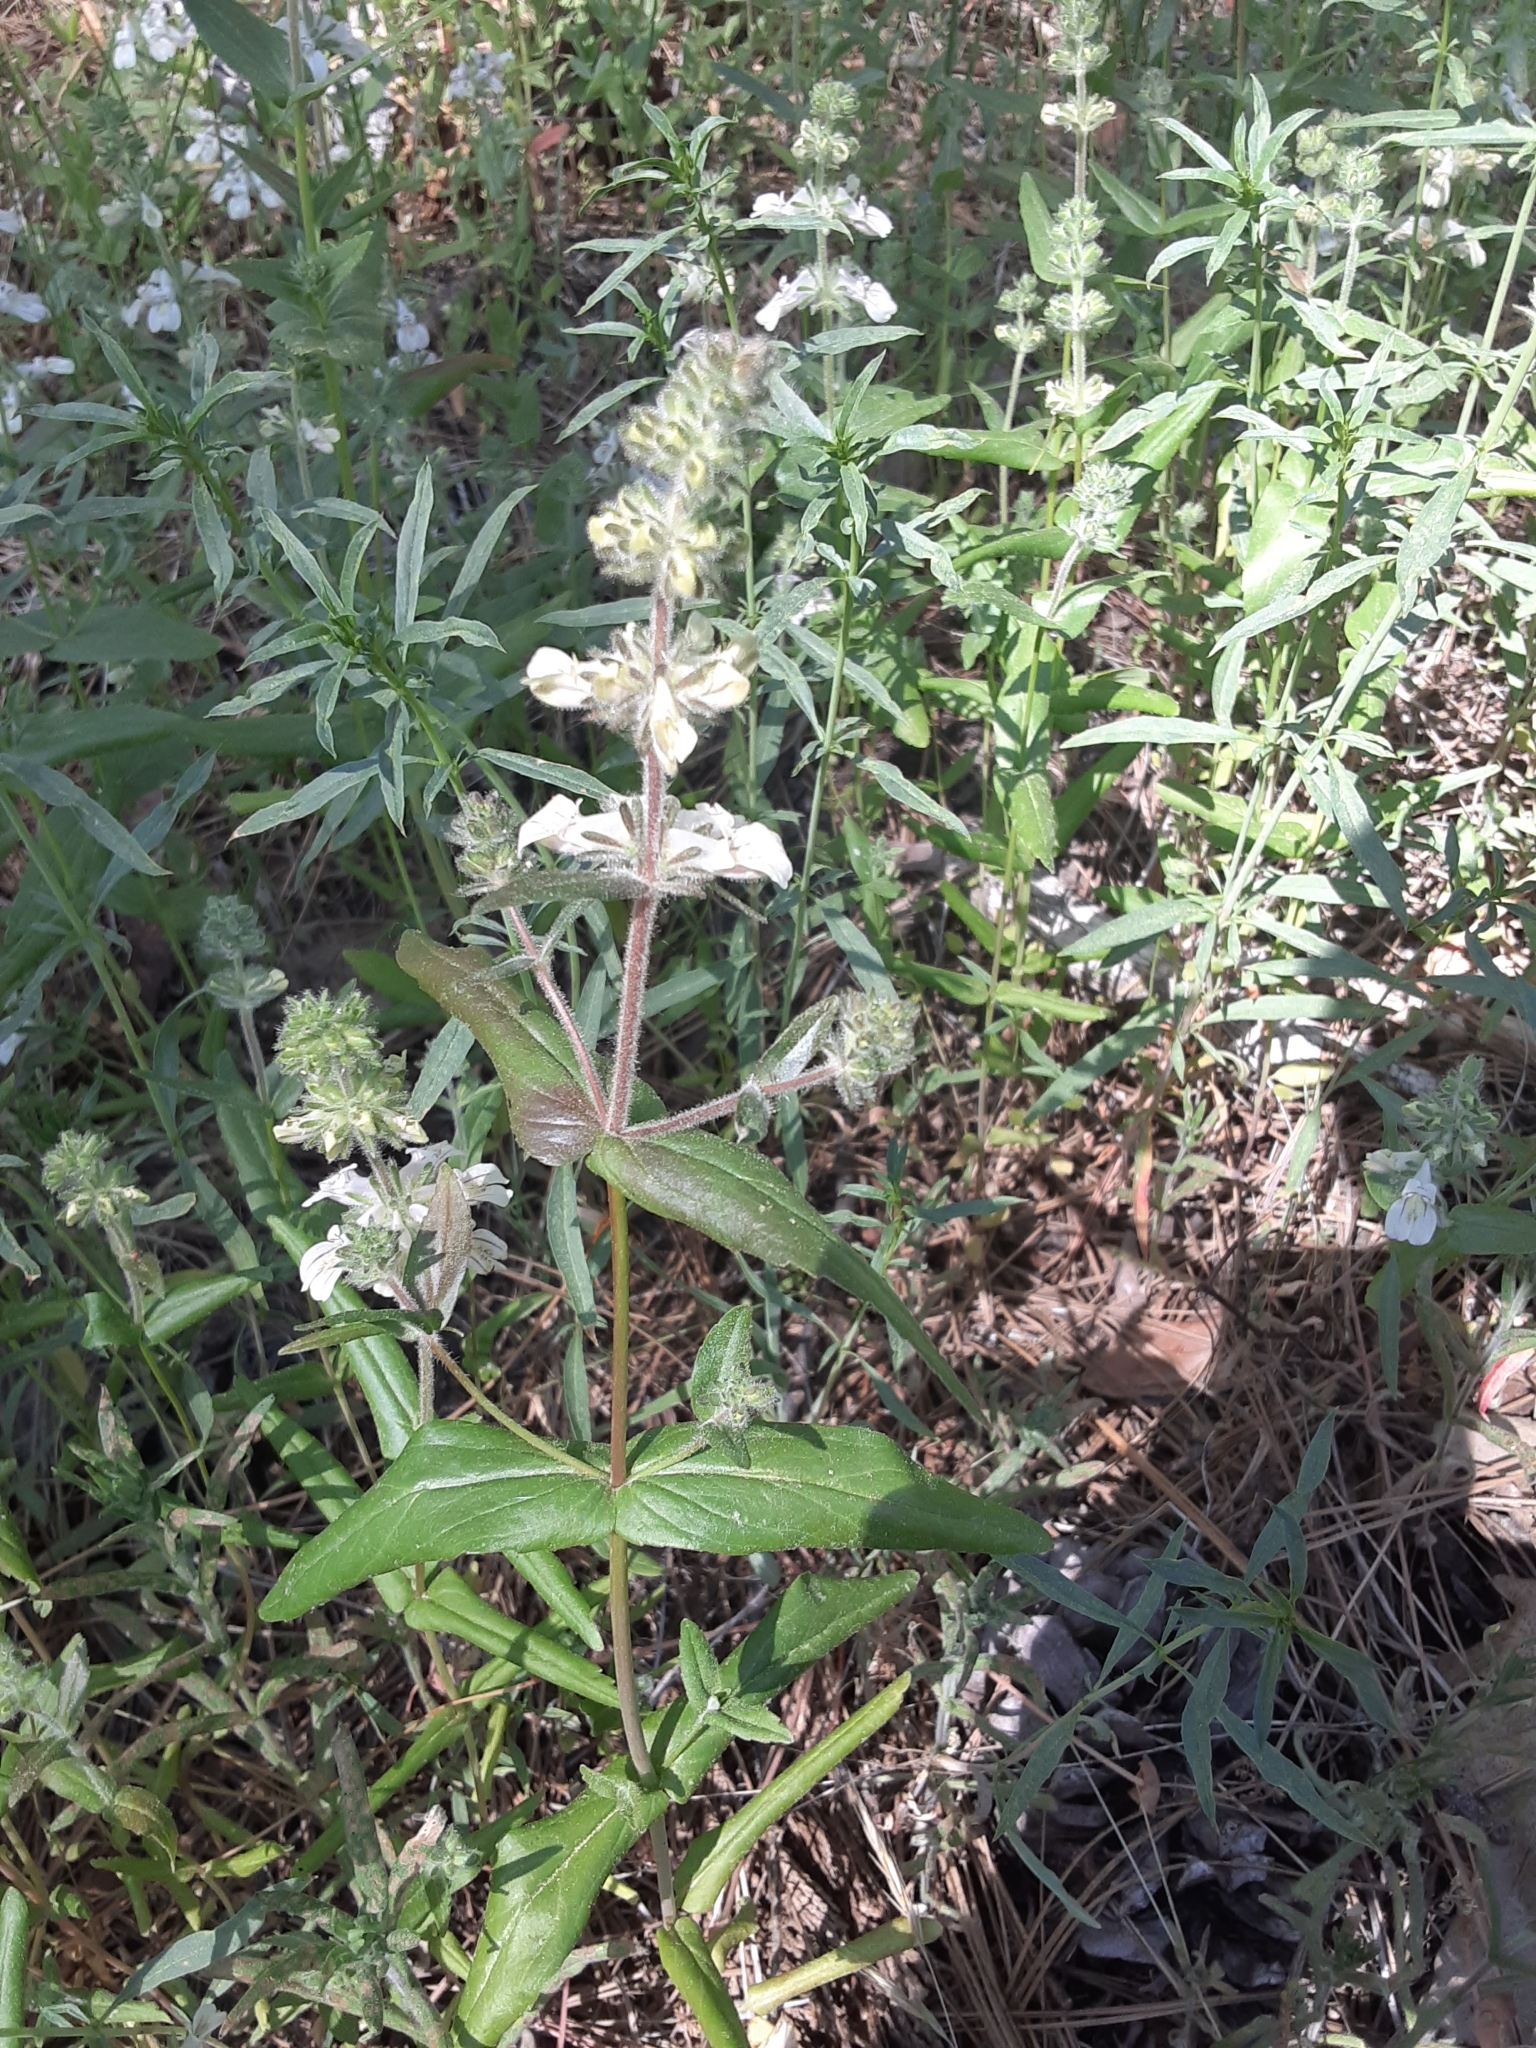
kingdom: Plantae
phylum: Tracheophyta
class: Magnoliopsida
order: Lamiales
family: Plantaginaceae
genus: Collinsia
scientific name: Collinsia tinctoria
